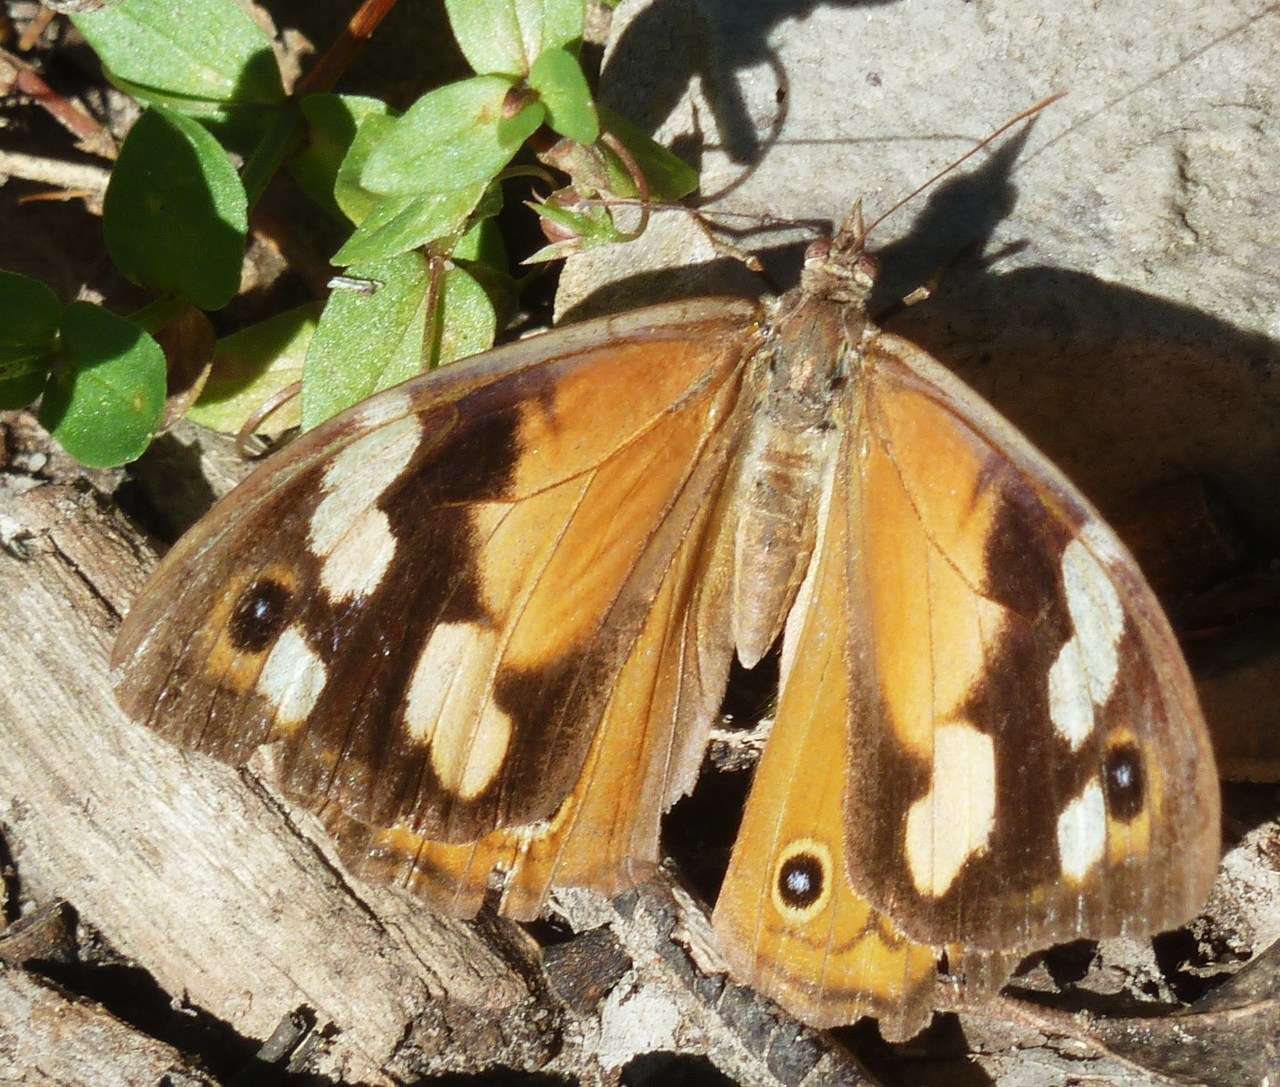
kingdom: Animalia
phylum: Arthropoda
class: Insecta
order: Lepidoptera
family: Nymphalidae
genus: Heteronympha
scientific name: Heteronympha merope
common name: Common brown
